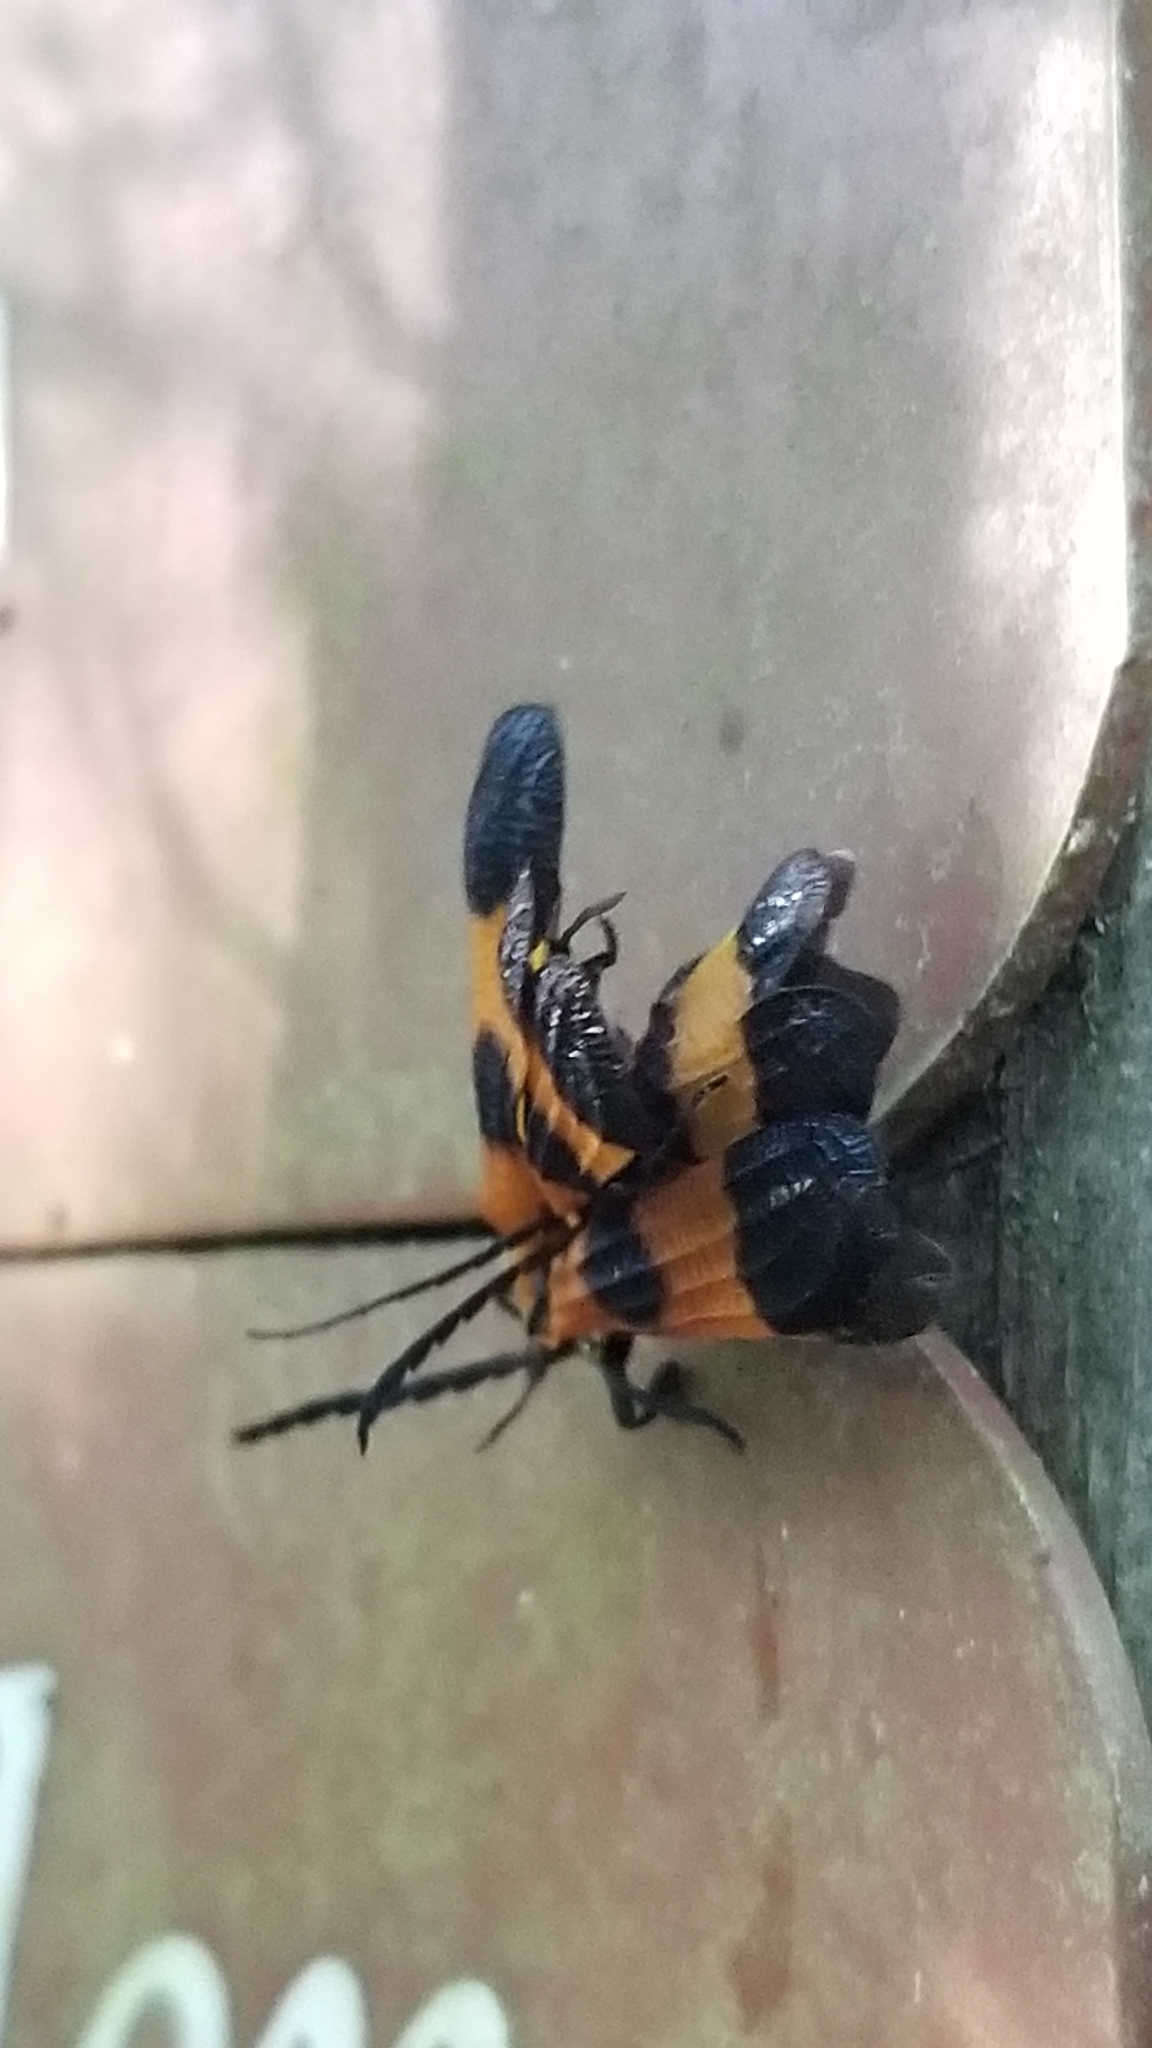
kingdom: Animalia
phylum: Arthropoda
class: Insecta
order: Coleoptera
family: Lycidae
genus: Calopteron
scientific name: Calopteron terminale
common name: End band net-winged beetle
